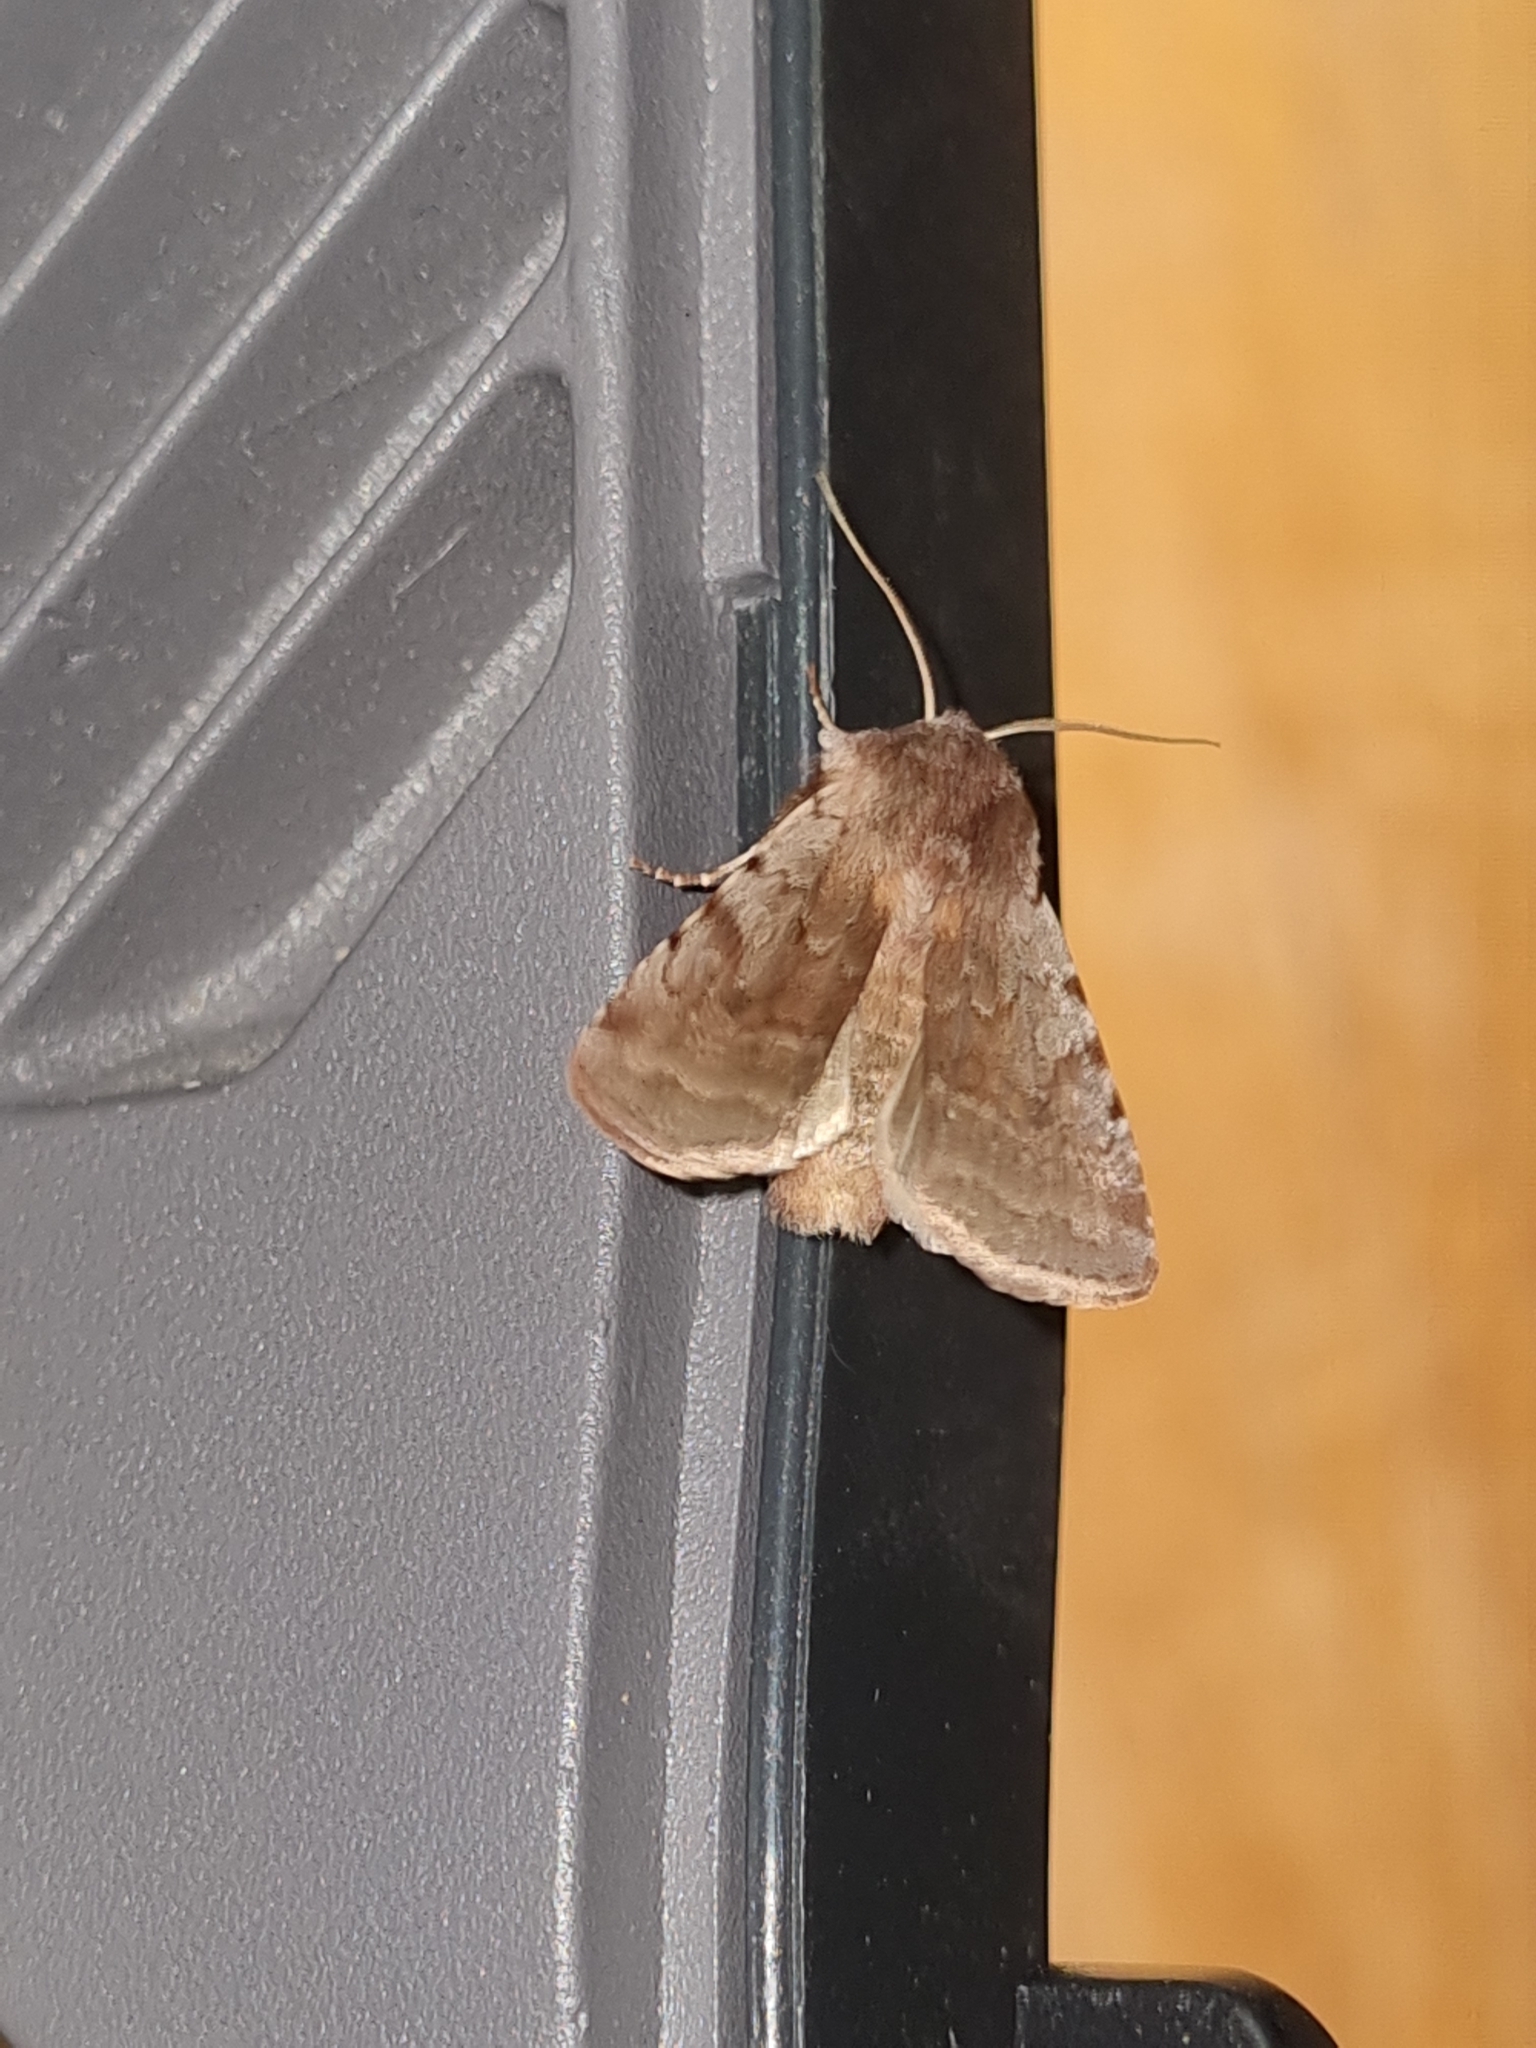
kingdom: Animalia
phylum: Arthropoda
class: Insecta
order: Lepidoptera
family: Noctuidae
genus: Cerastis
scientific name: Cerastis rubricosa
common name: Red chestnut
